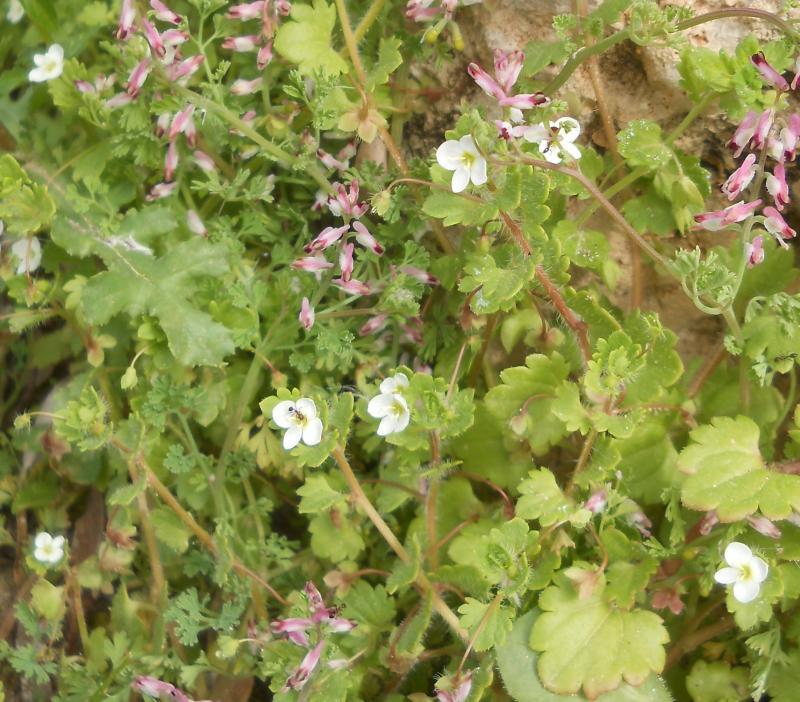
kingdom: Plantae
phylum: Tracheophyta
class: Magnoliopsida
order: Lamiales
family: Plantaginaceae
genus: Veronica
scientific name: Veronica cymbalaria
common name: Pale speedwell
